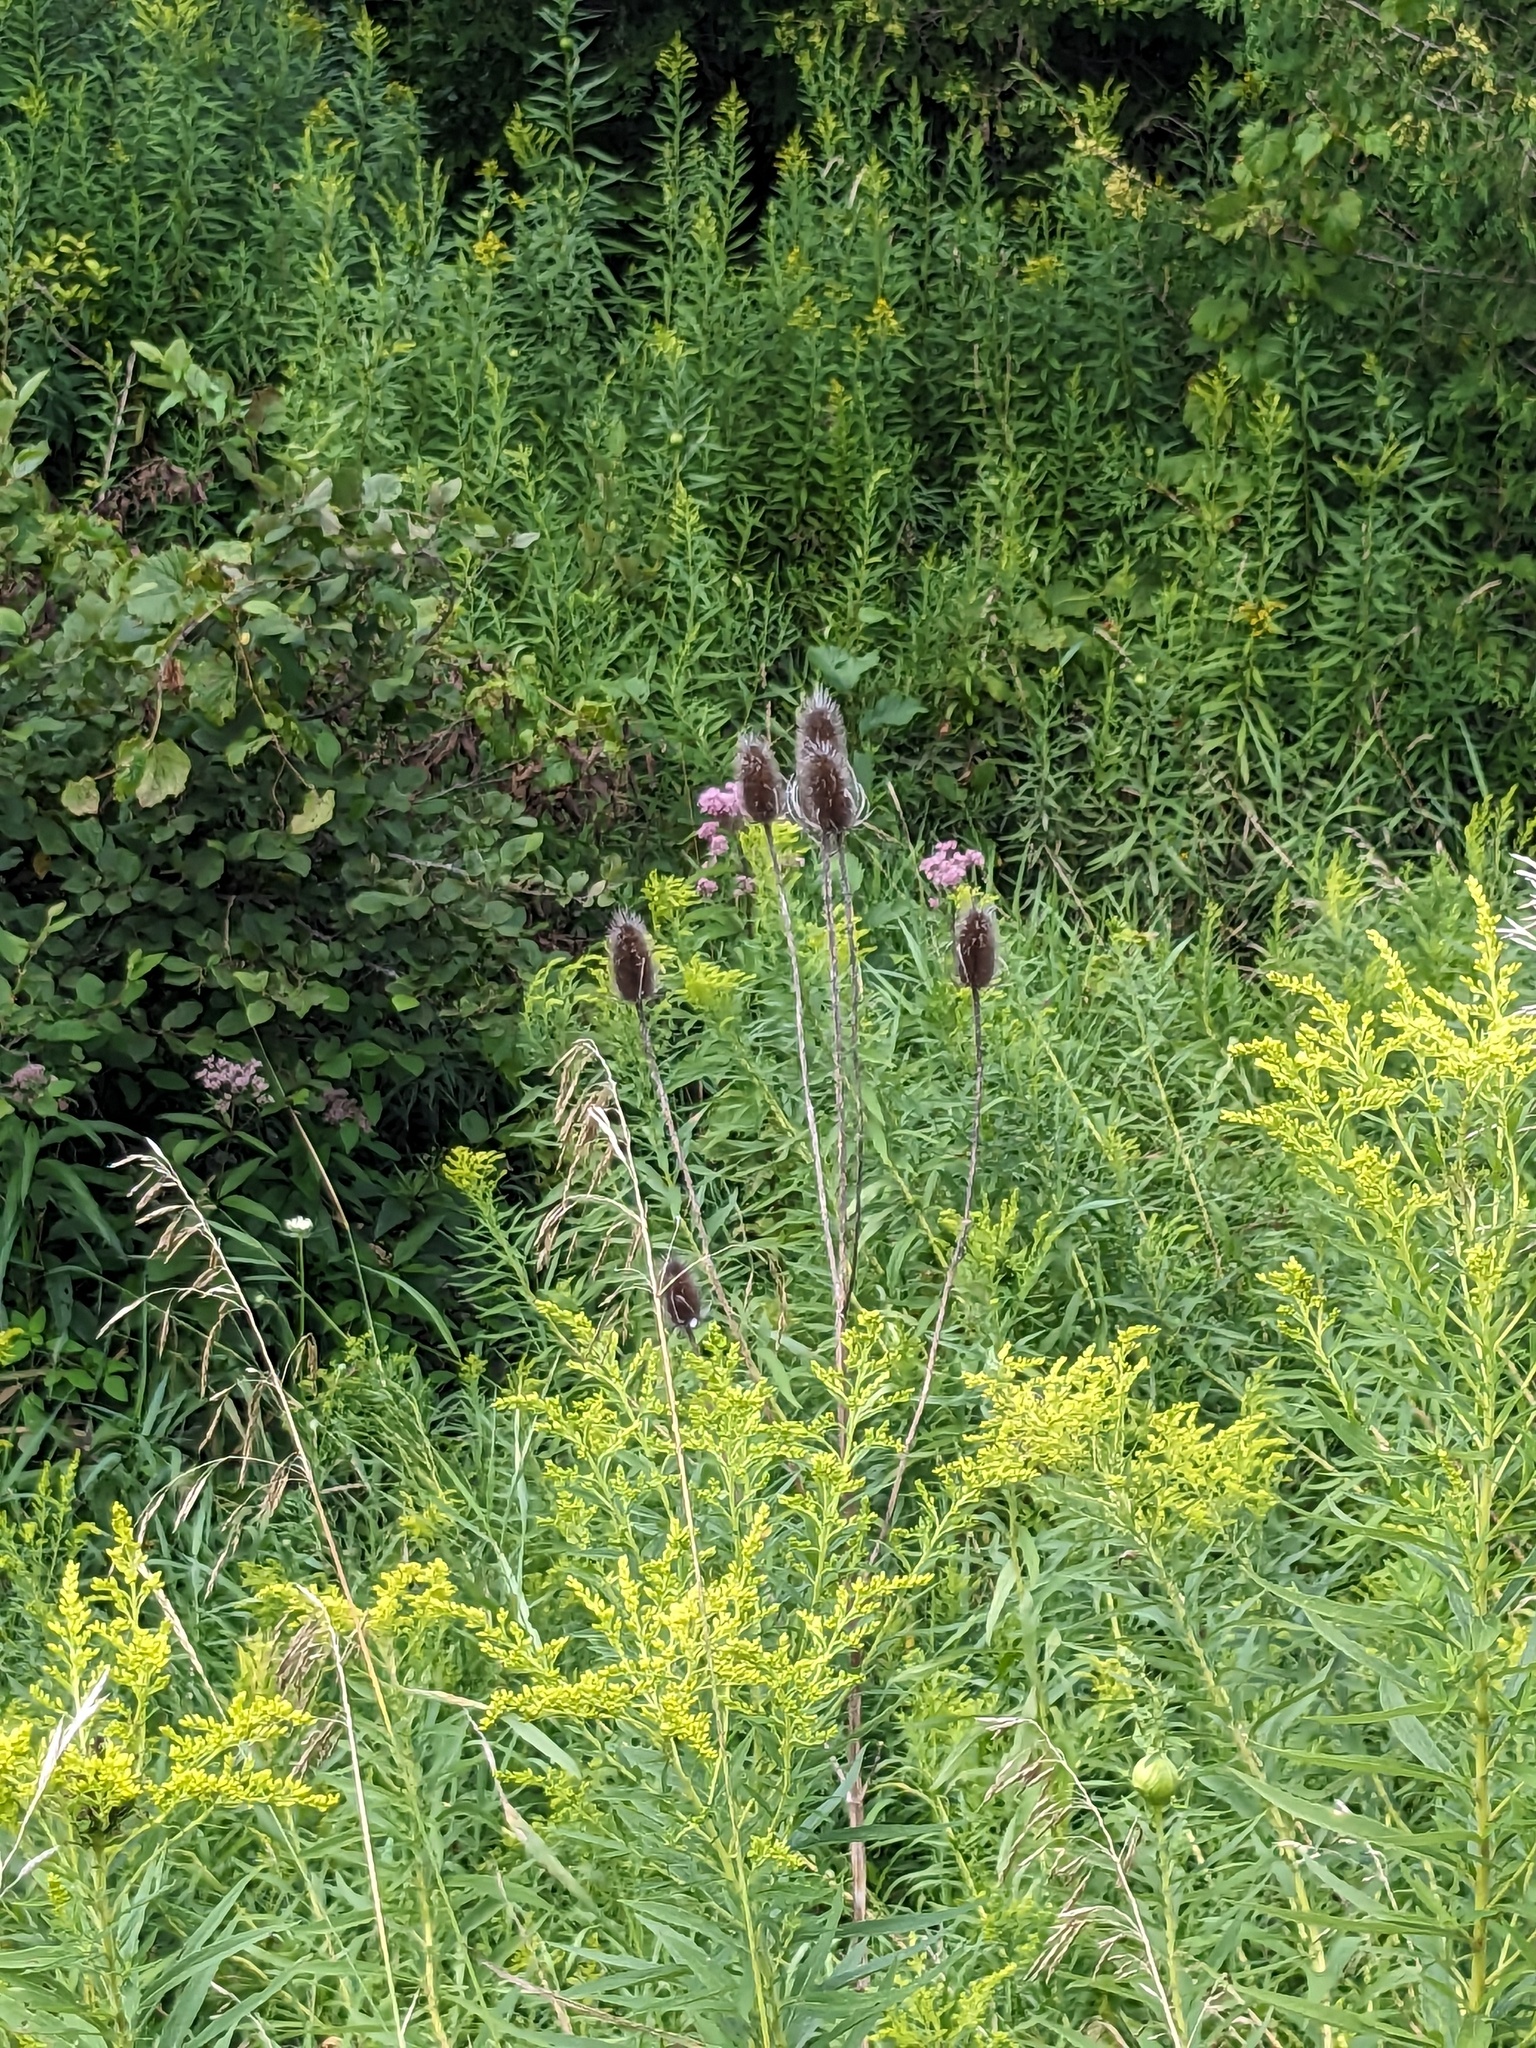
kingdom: Plantae
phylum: Tracheophyta
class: Magnoliopsida
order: Dipsacales
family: Caprifoliaceae
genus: Dipsacus
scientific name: Dipsacus fullonum
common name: Teasel
